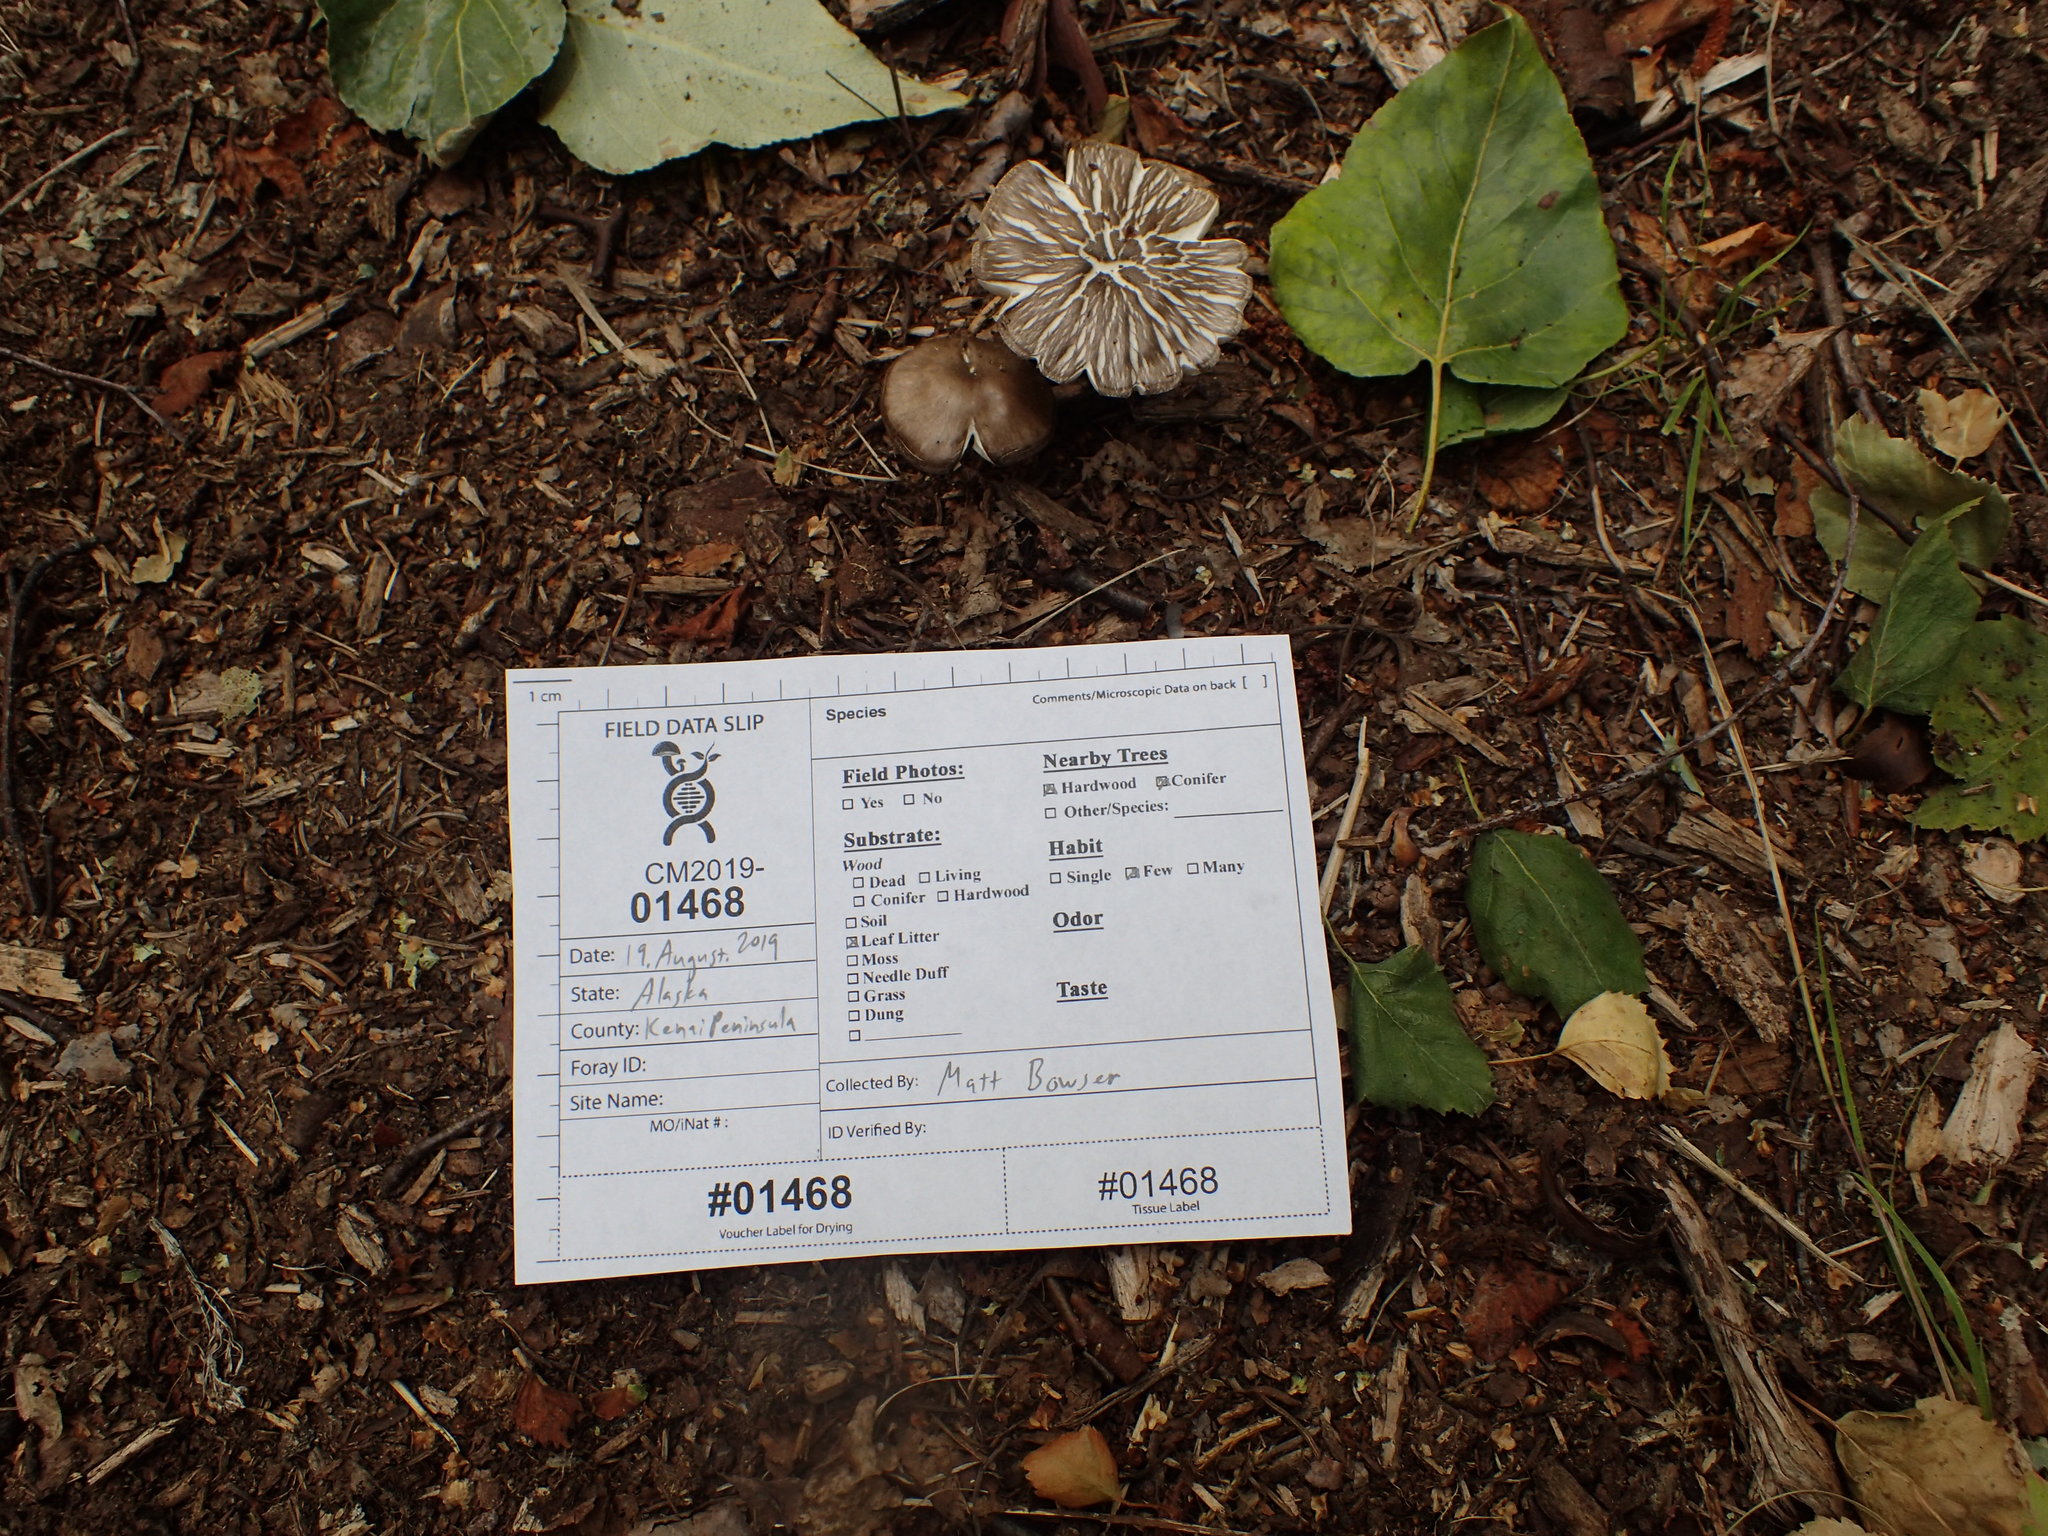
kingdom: Fungi
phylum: Basidiomycota
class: Agaricomycetes
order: Agaricales
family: Pluteaceae
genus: Pluteus
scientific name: Pluteus ephebeus
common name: Sooty shield
